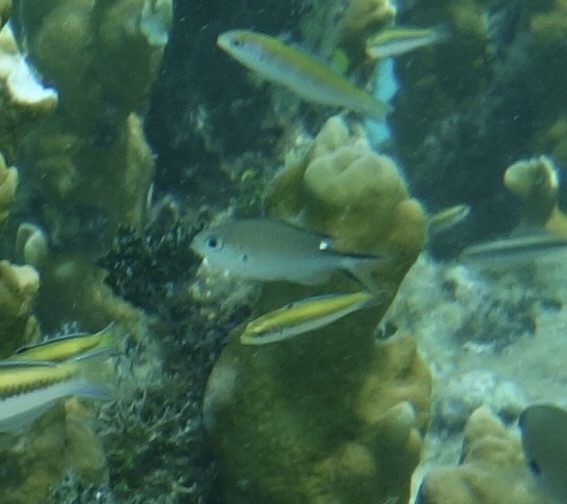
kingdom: Animalia
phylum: Chordata
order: Perciformes
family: Pomacentridae
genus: Chromis
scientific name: Chromis multilineata
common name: Brown chromis
